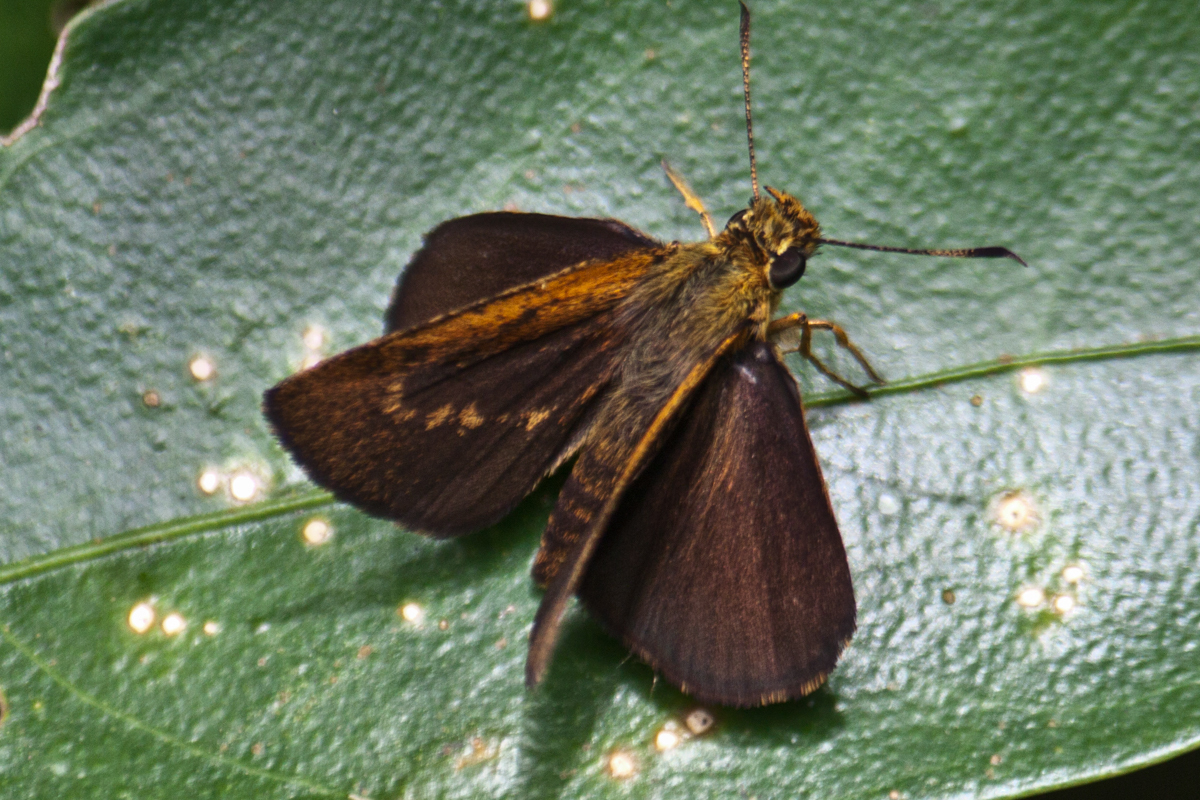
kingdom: Animalia
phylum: Arthropoda
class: Insecta
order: Lepidoptera
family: Hesperiidae
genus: Iambrix
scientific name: Iambrix salsala
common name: Chestnut bob
